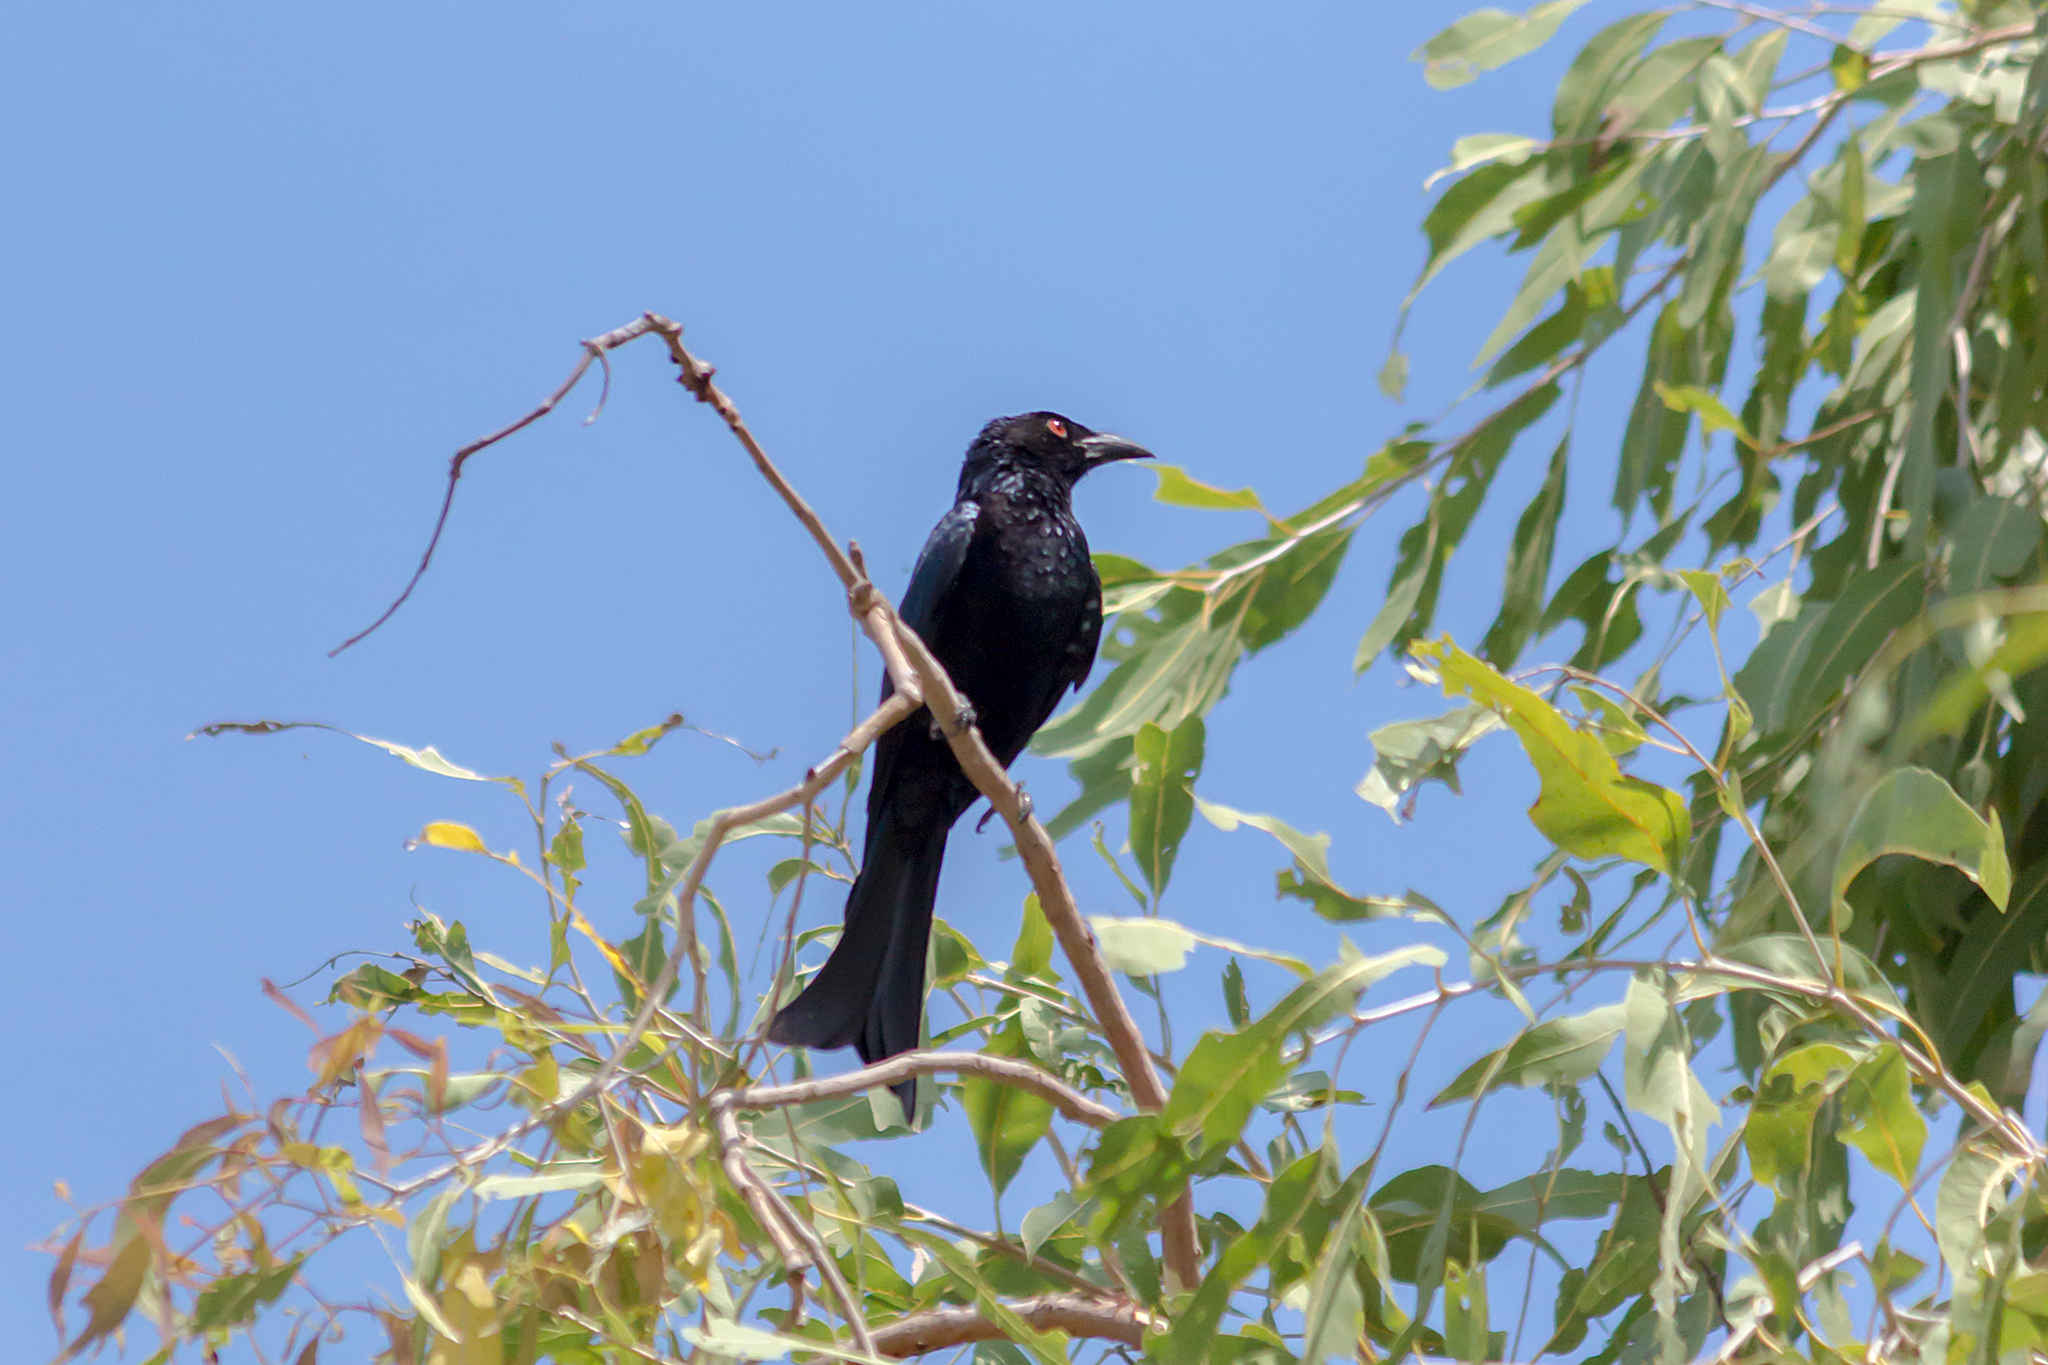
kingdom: Animalia
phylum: Chordata
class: Aves
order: Passeriformes
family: Dicruridae
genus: Dicrurus
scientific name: Dicrurus bracteatus
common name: Spangled drongo
